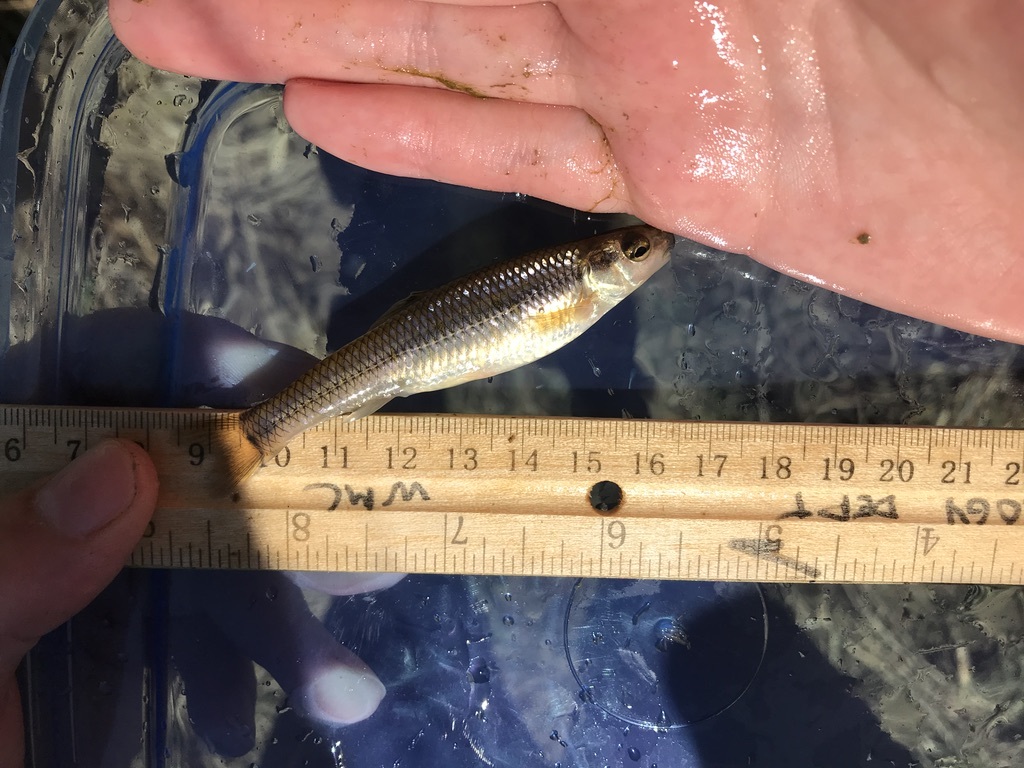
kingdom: Animalia
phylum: Chordata
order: Cypriniformes
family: Cyprinidae
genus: Pimephales
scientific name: Pimephales notatus
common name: Bluntnose minnow
